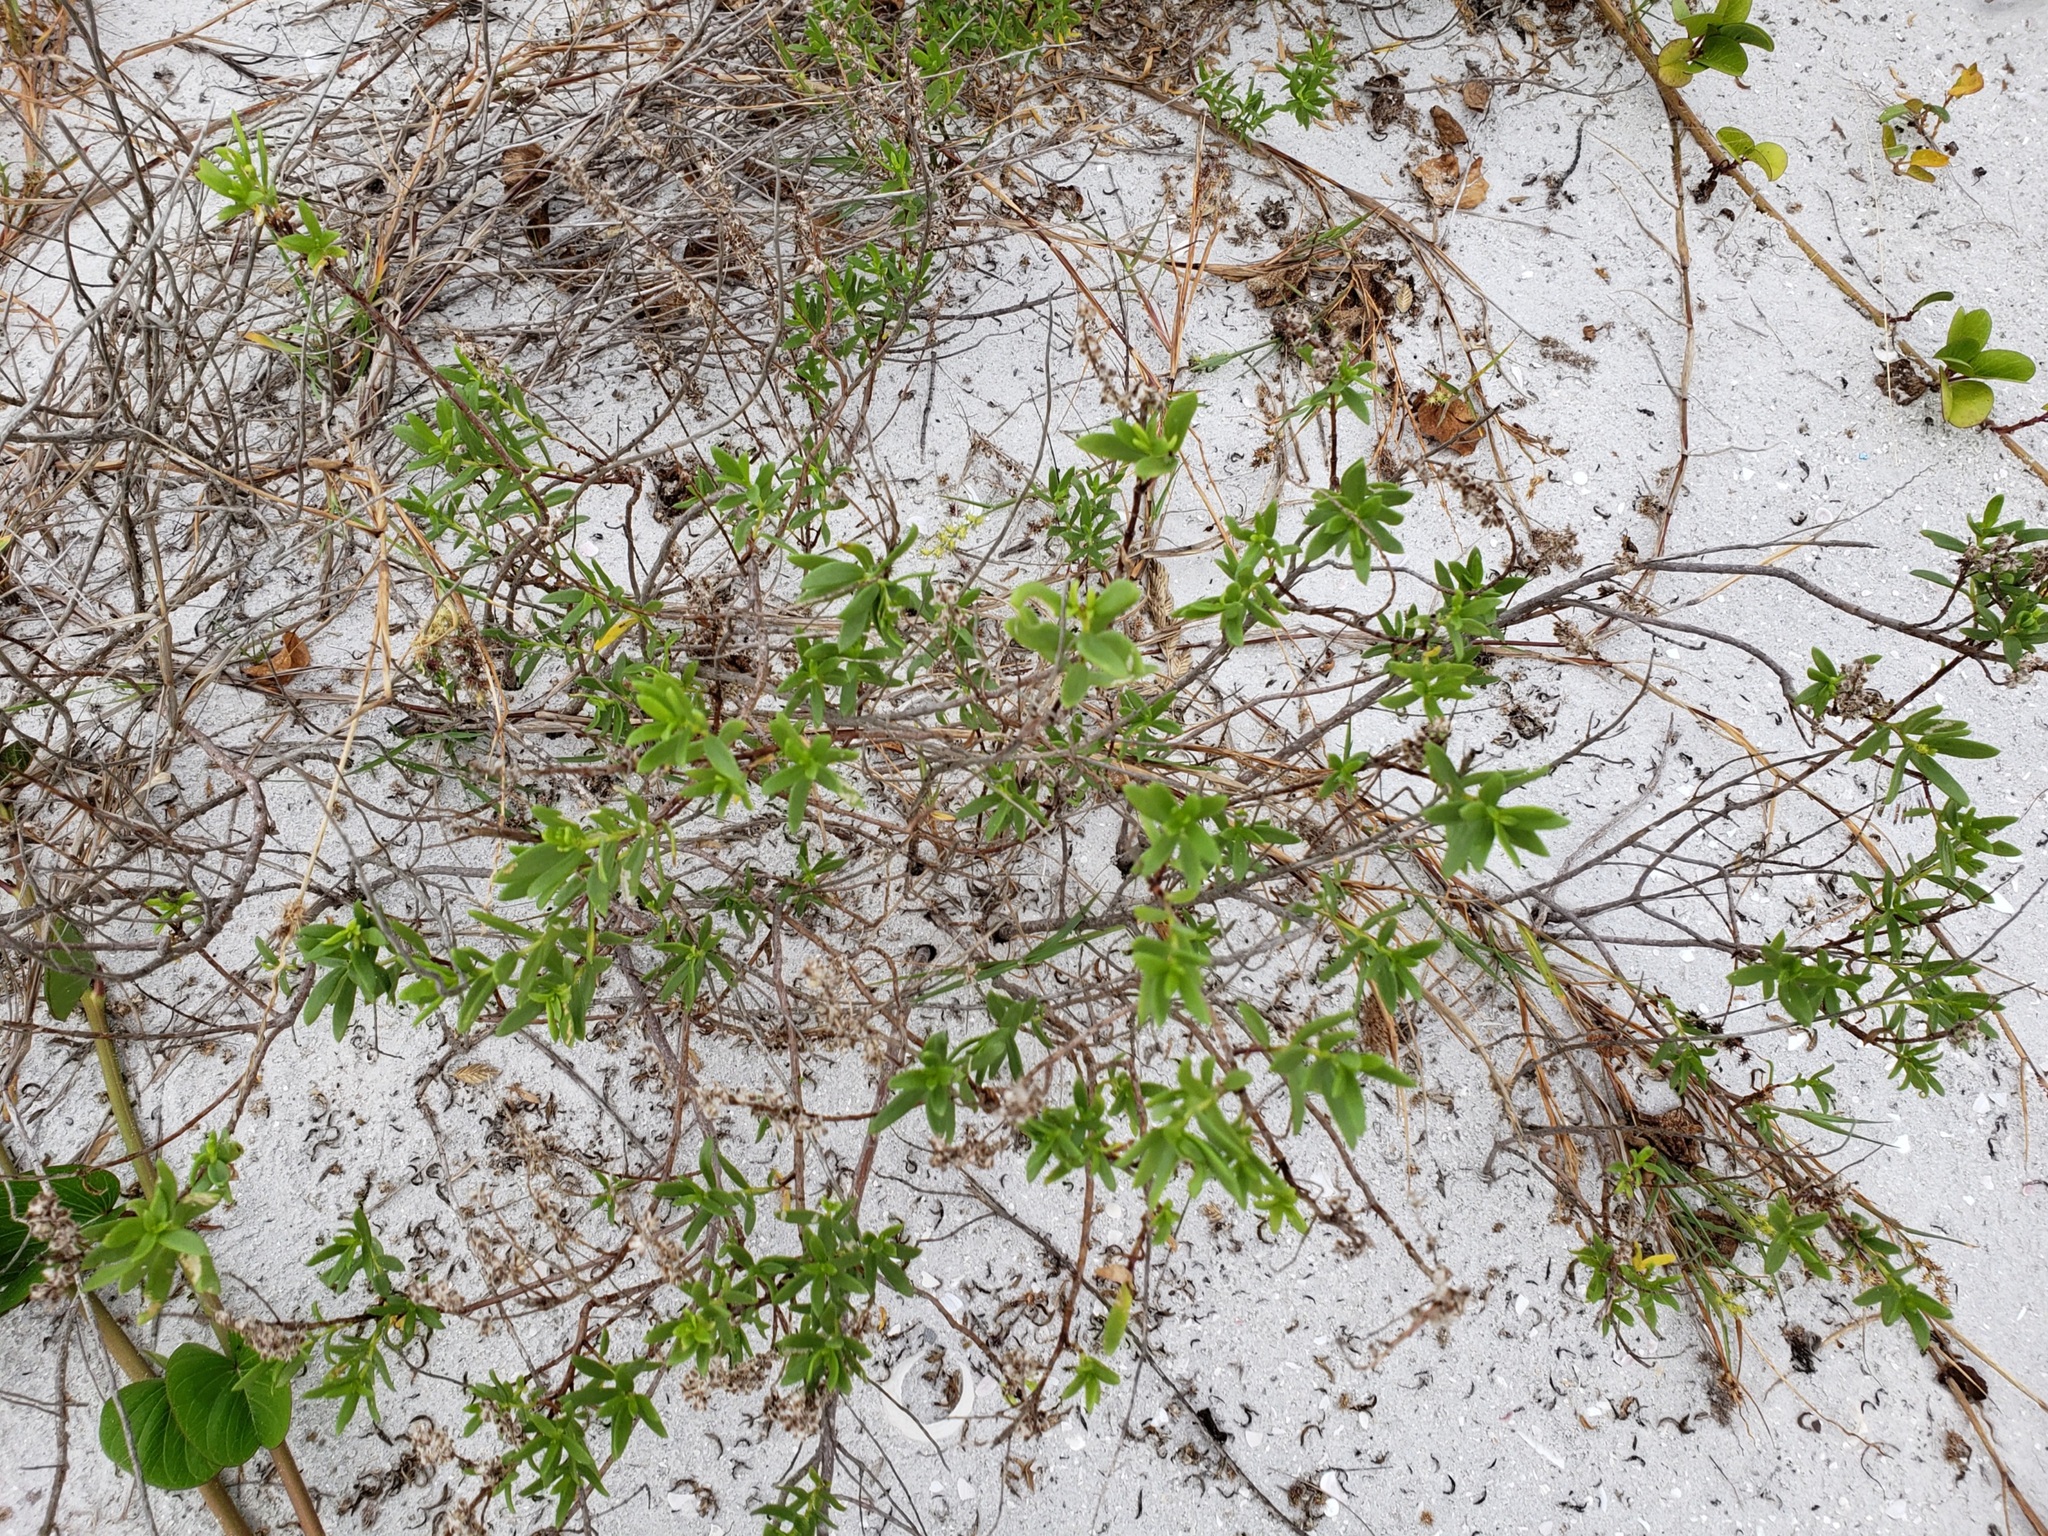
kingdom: Plantae
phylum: Tracheophyta
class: Magnoliopsida
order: Asterales
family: Asteraceae
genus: Iva
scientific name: Iva imbricata
